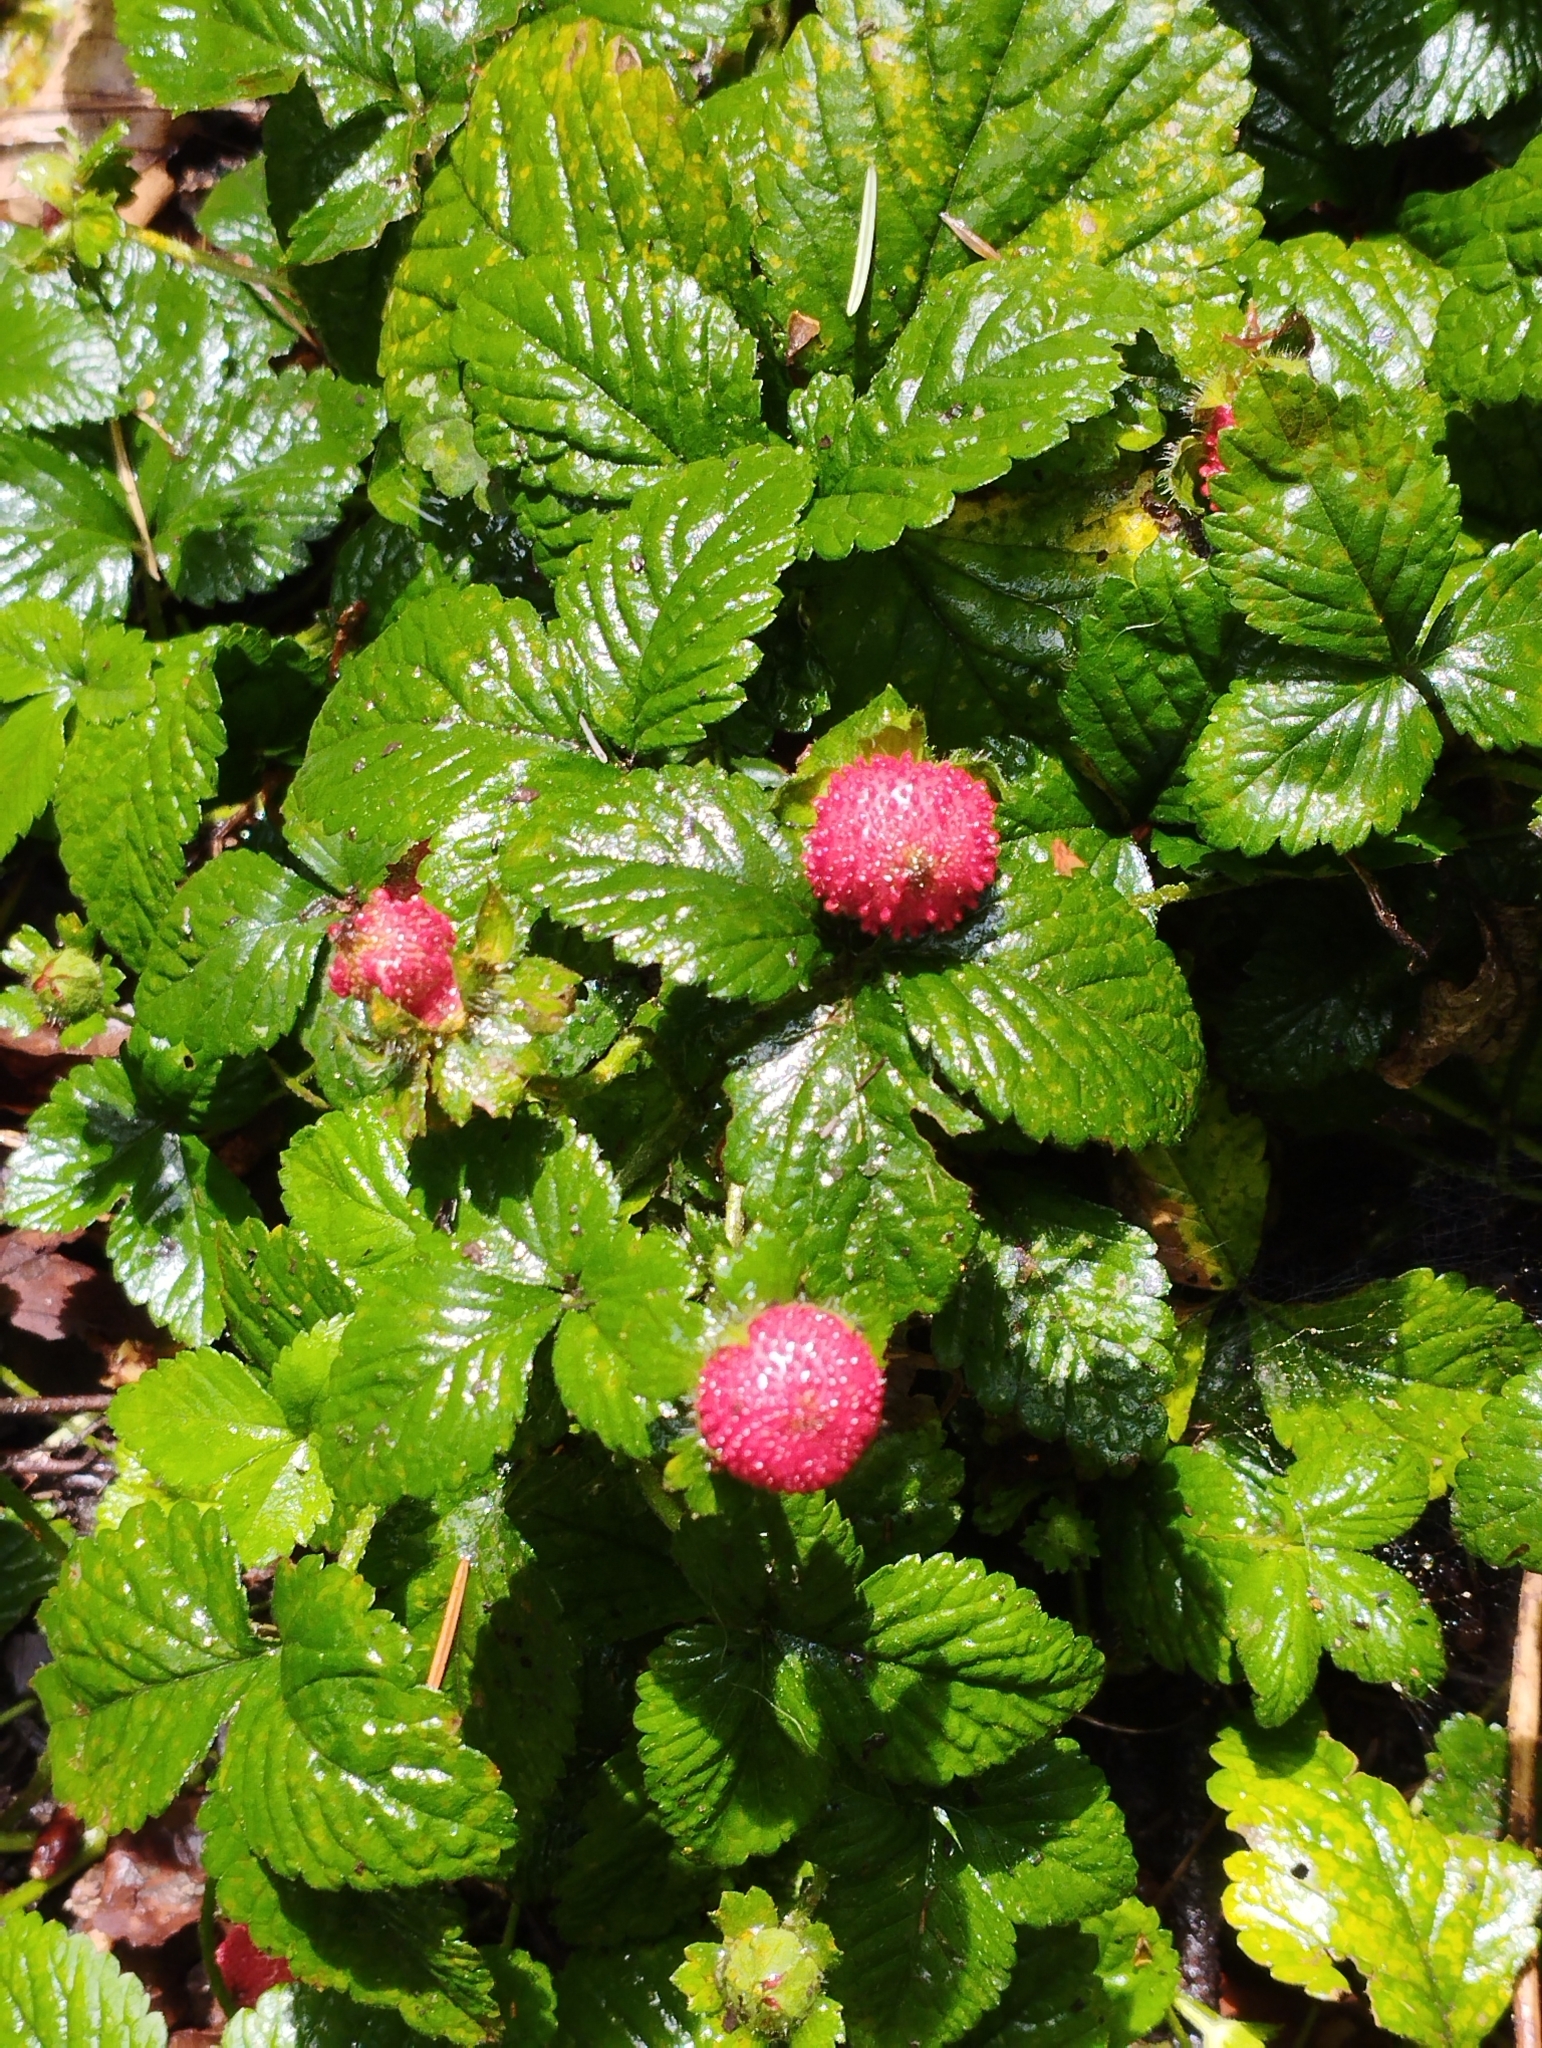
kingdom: Plantae
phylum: Tracheophyta
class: Magnoliopsida
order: Rosales
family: Rosaceae
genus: Potentilla
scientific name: Potentilla indica
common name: Yellow-flowered strawberry
